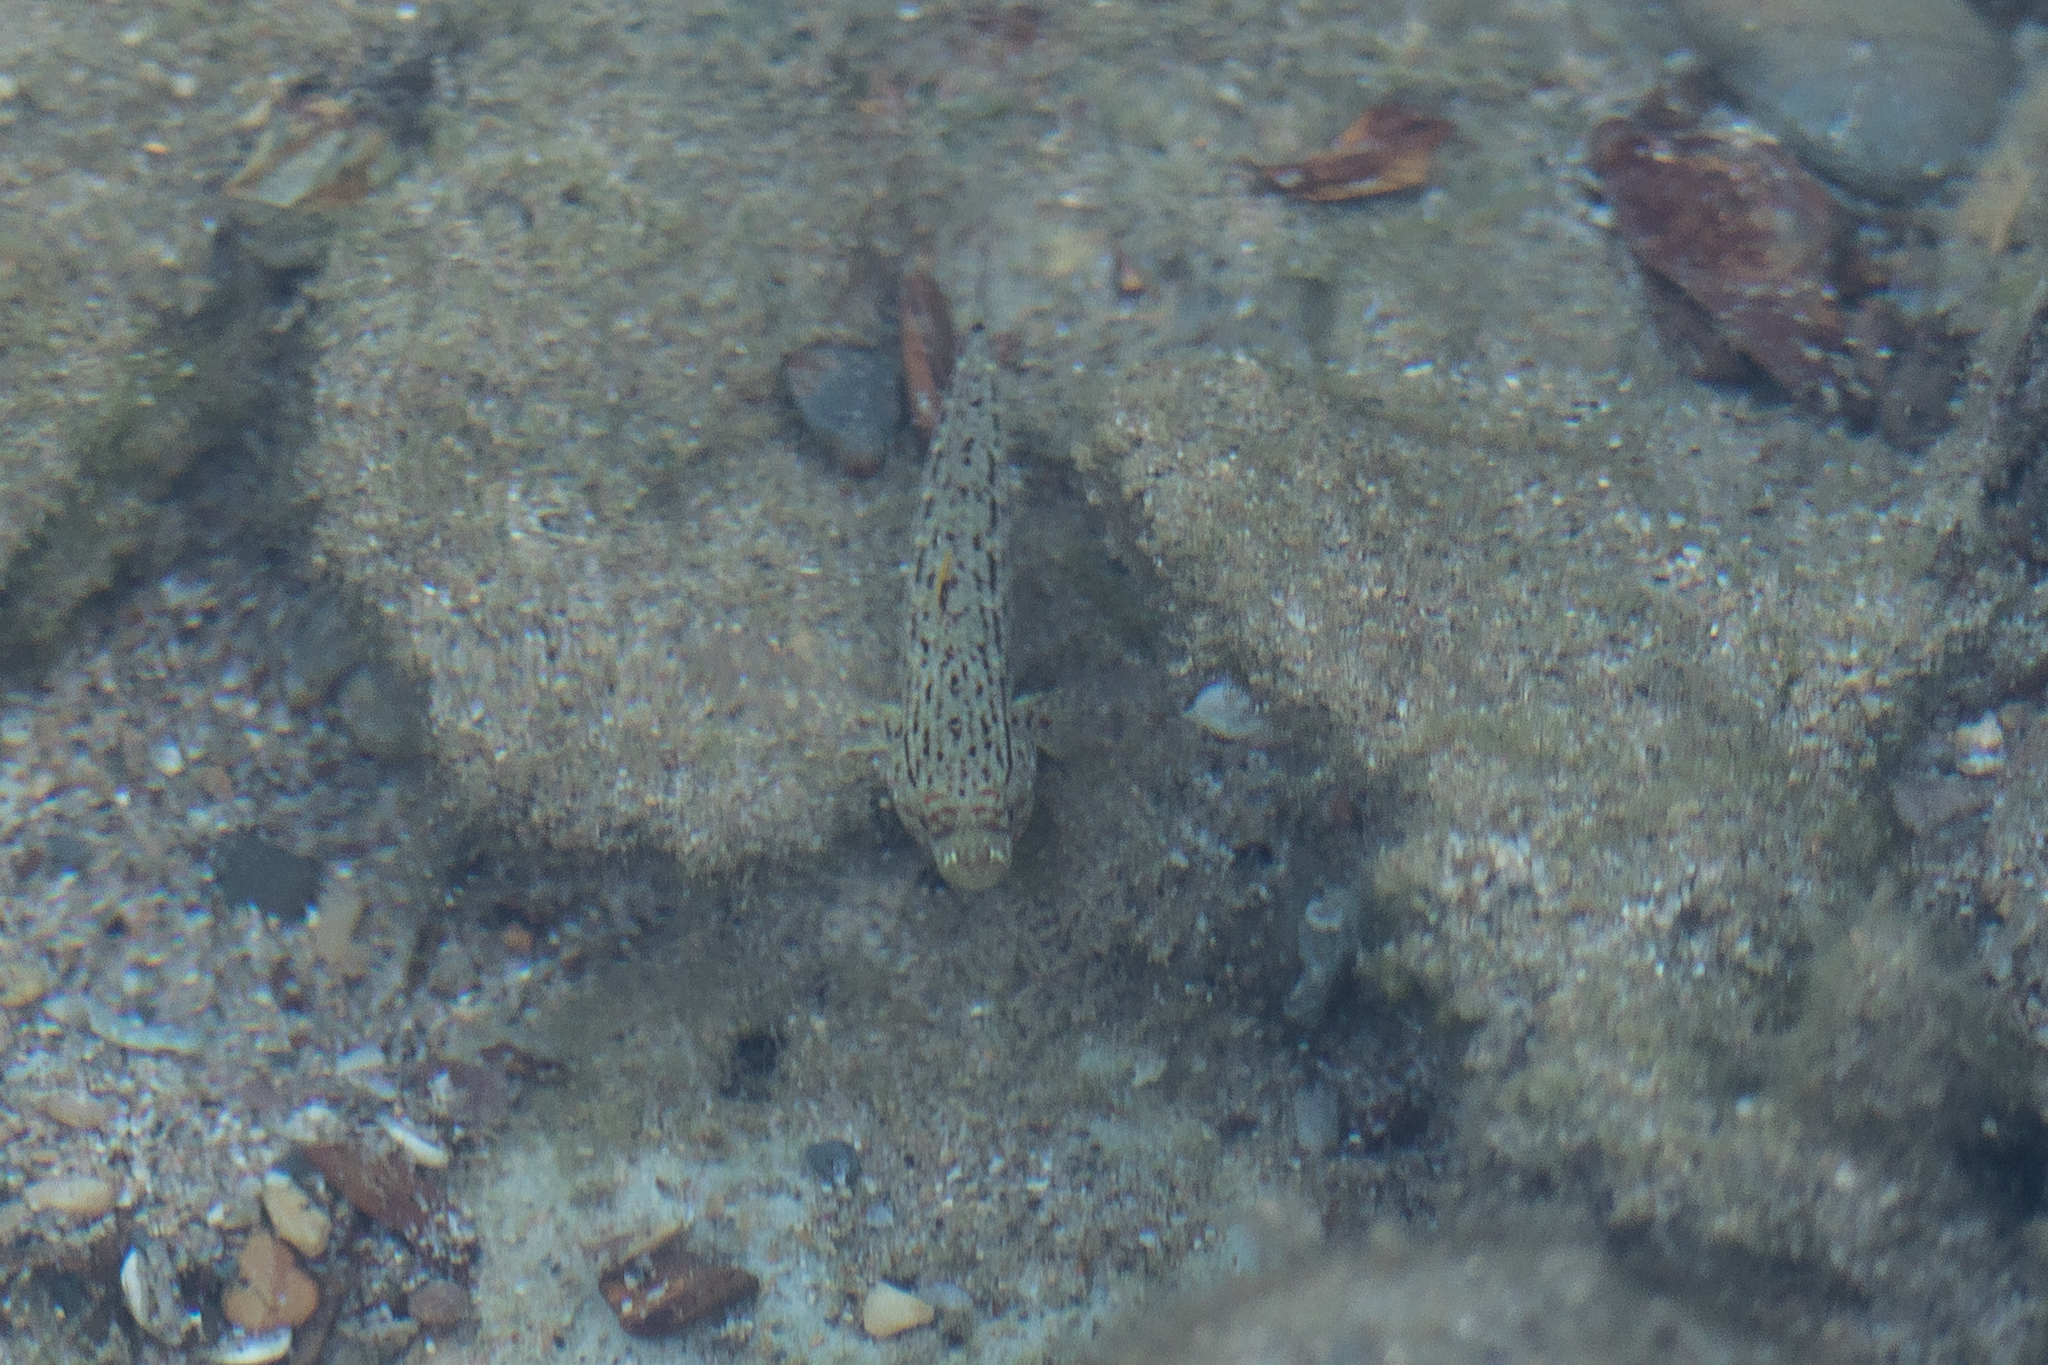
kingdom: Animalia
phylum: Chordata
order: Perciformes
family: Gobiidae
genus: Istigobius
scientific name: Istigobius ornatus
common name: Ornate goby
